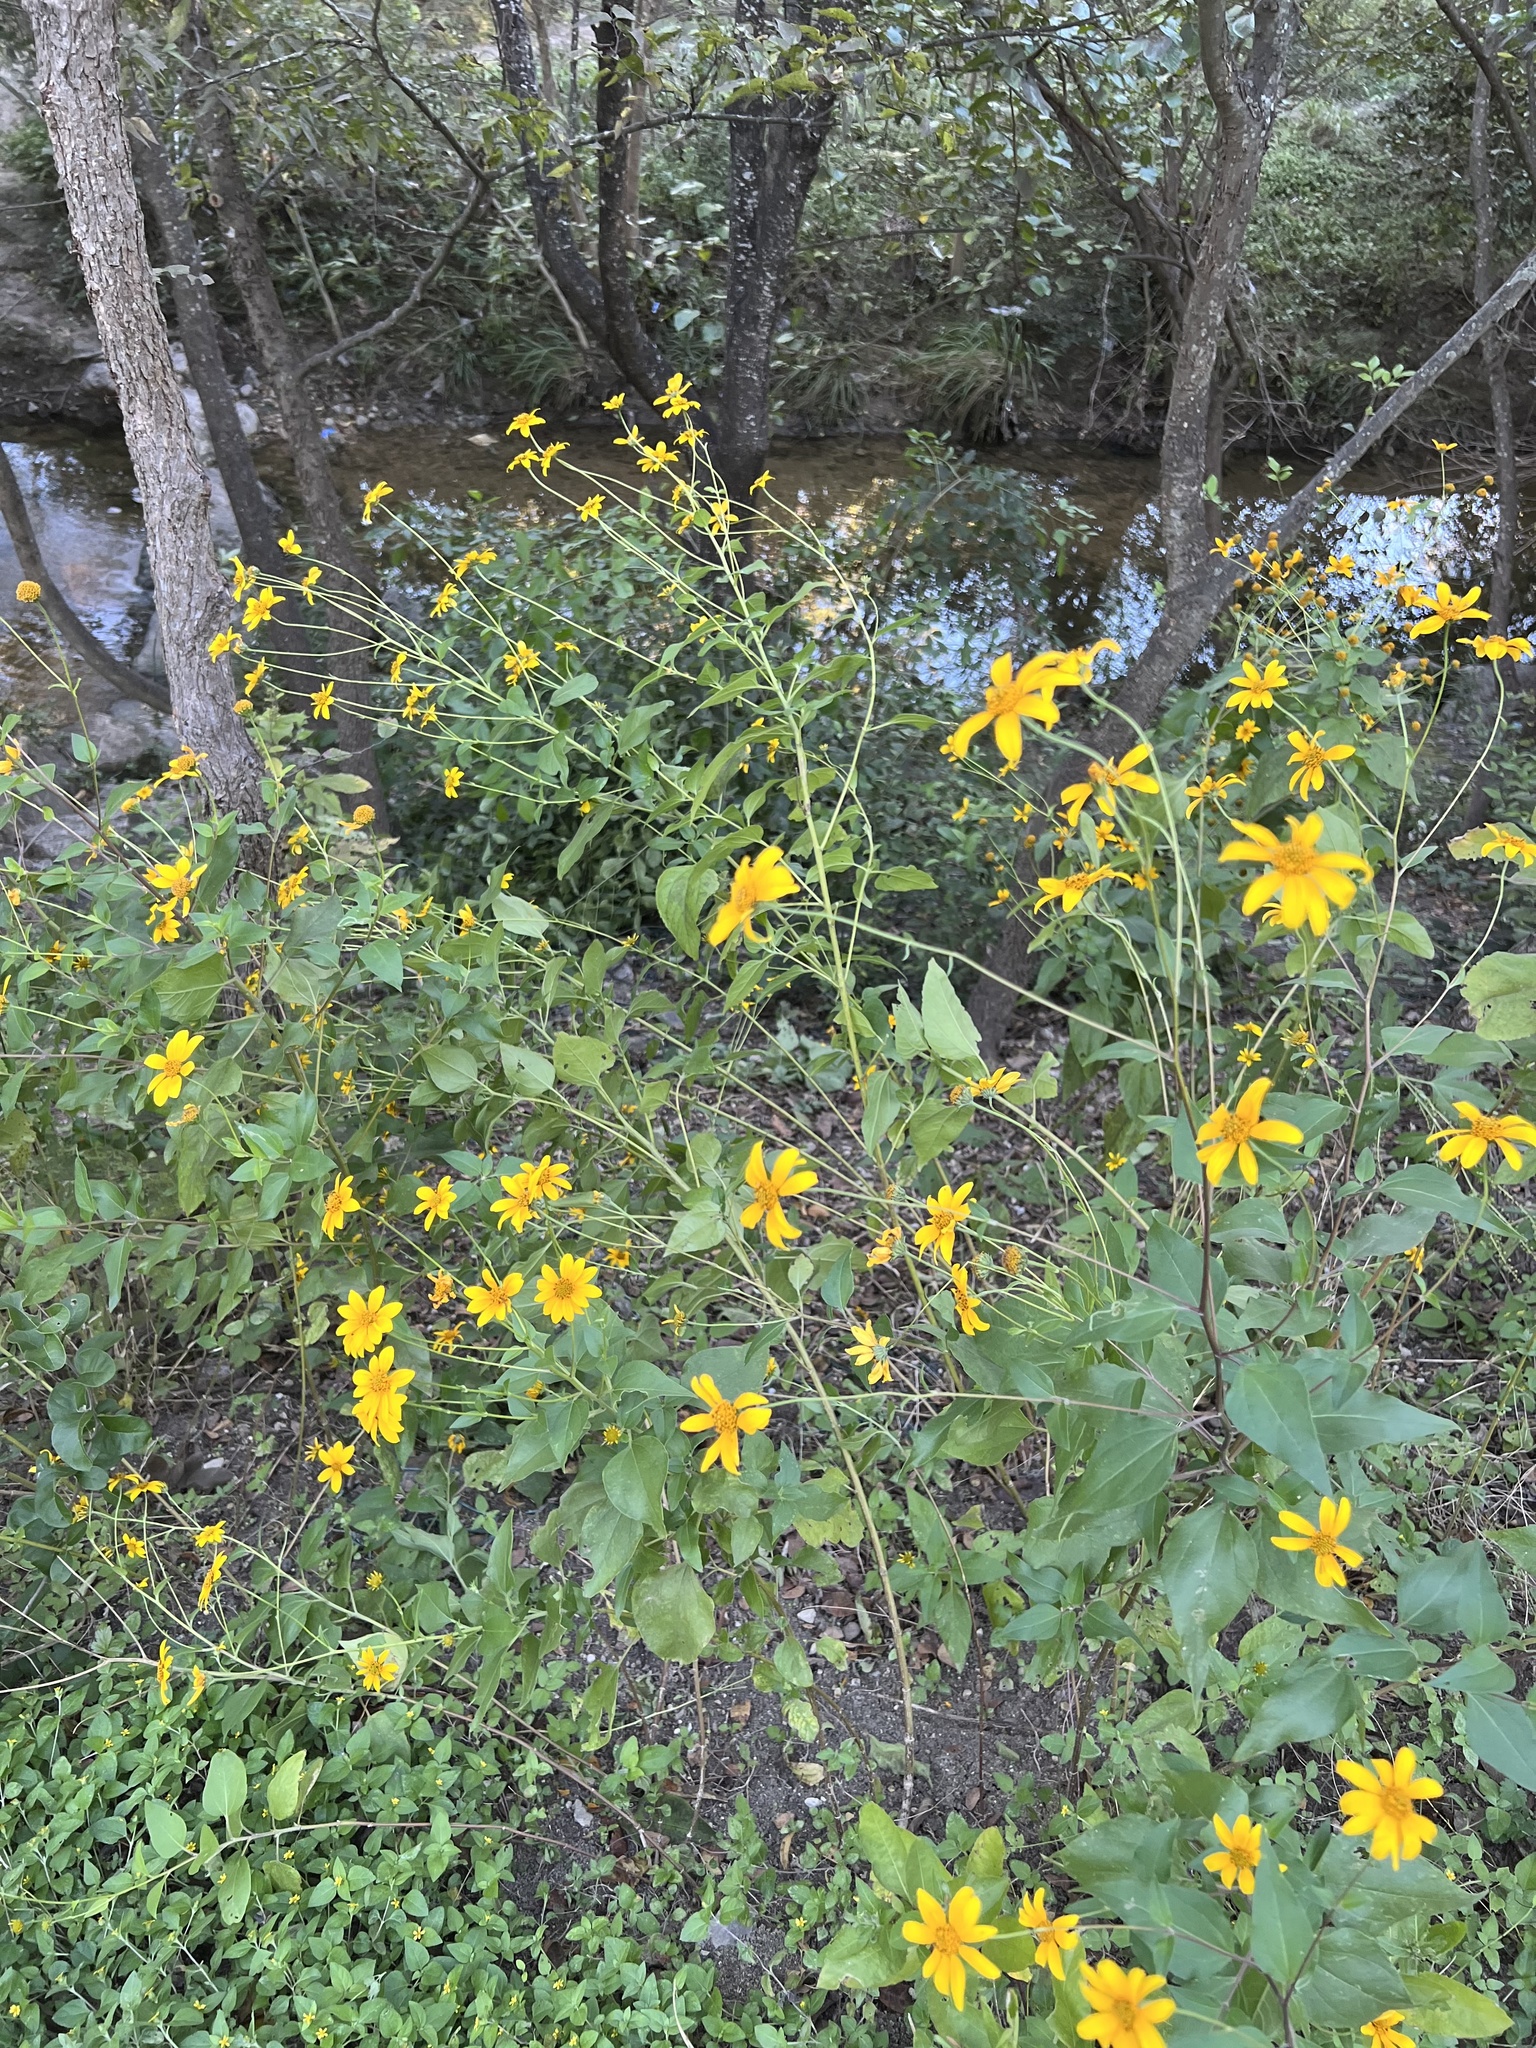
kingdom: Plantae
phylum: Tracheophyta
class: Magnoliopsida
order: Asterales
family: Asteraceae
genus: Viguiera
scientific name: Viguiera dentata
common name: Toothleaf
